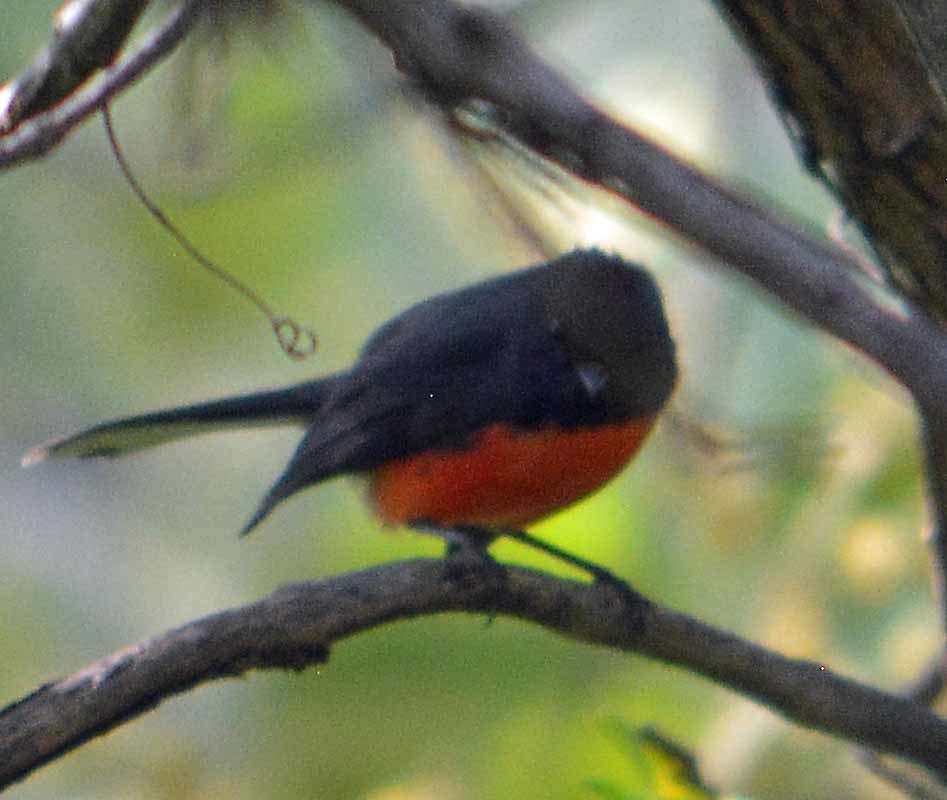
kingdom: Animalia
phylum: Chordata
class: Aves
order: Passeriformes
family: Parulidae
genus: Myioborus
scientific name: Myioborus miniatus
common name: Slate-throated redstart
